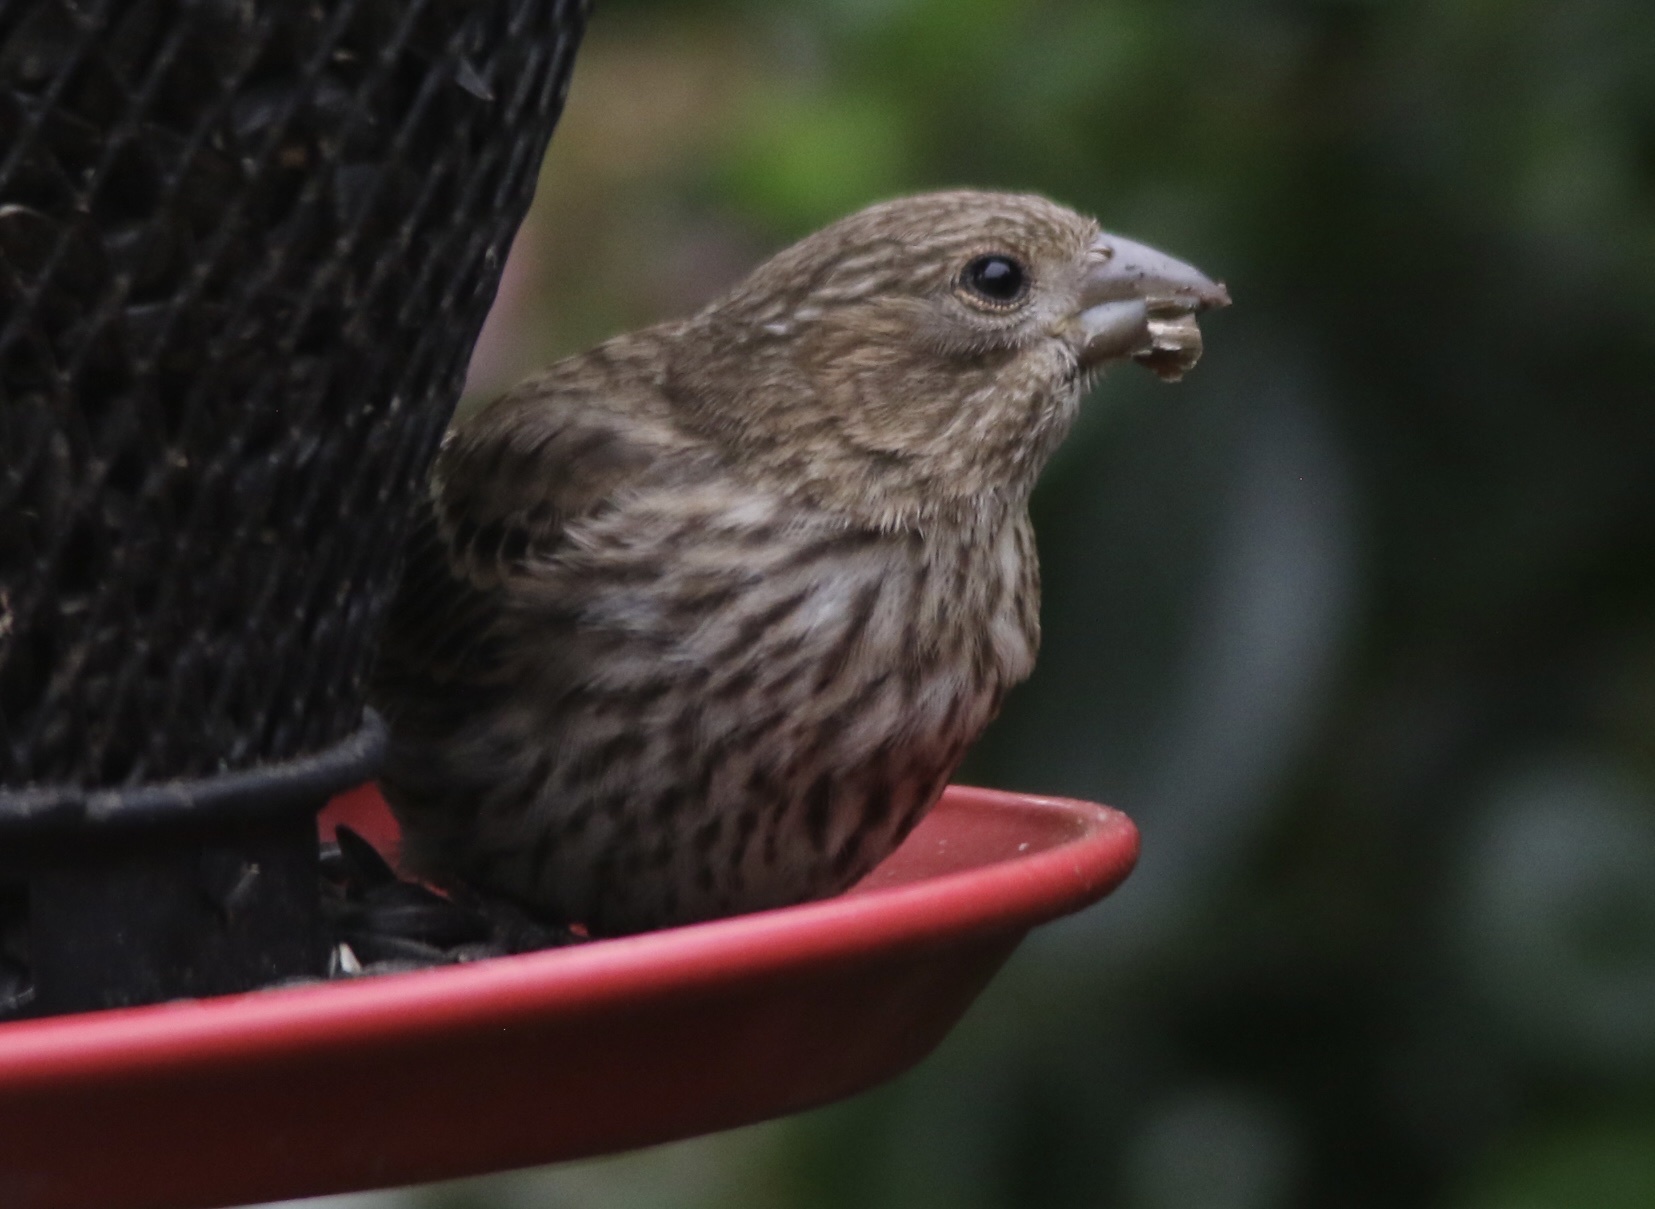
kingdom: Animalia
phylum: Chordata
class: Aves
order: Passeriformes
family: Fringillidae
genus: Haemorhous
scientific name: Haemorhous mexicanus
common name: House finch
